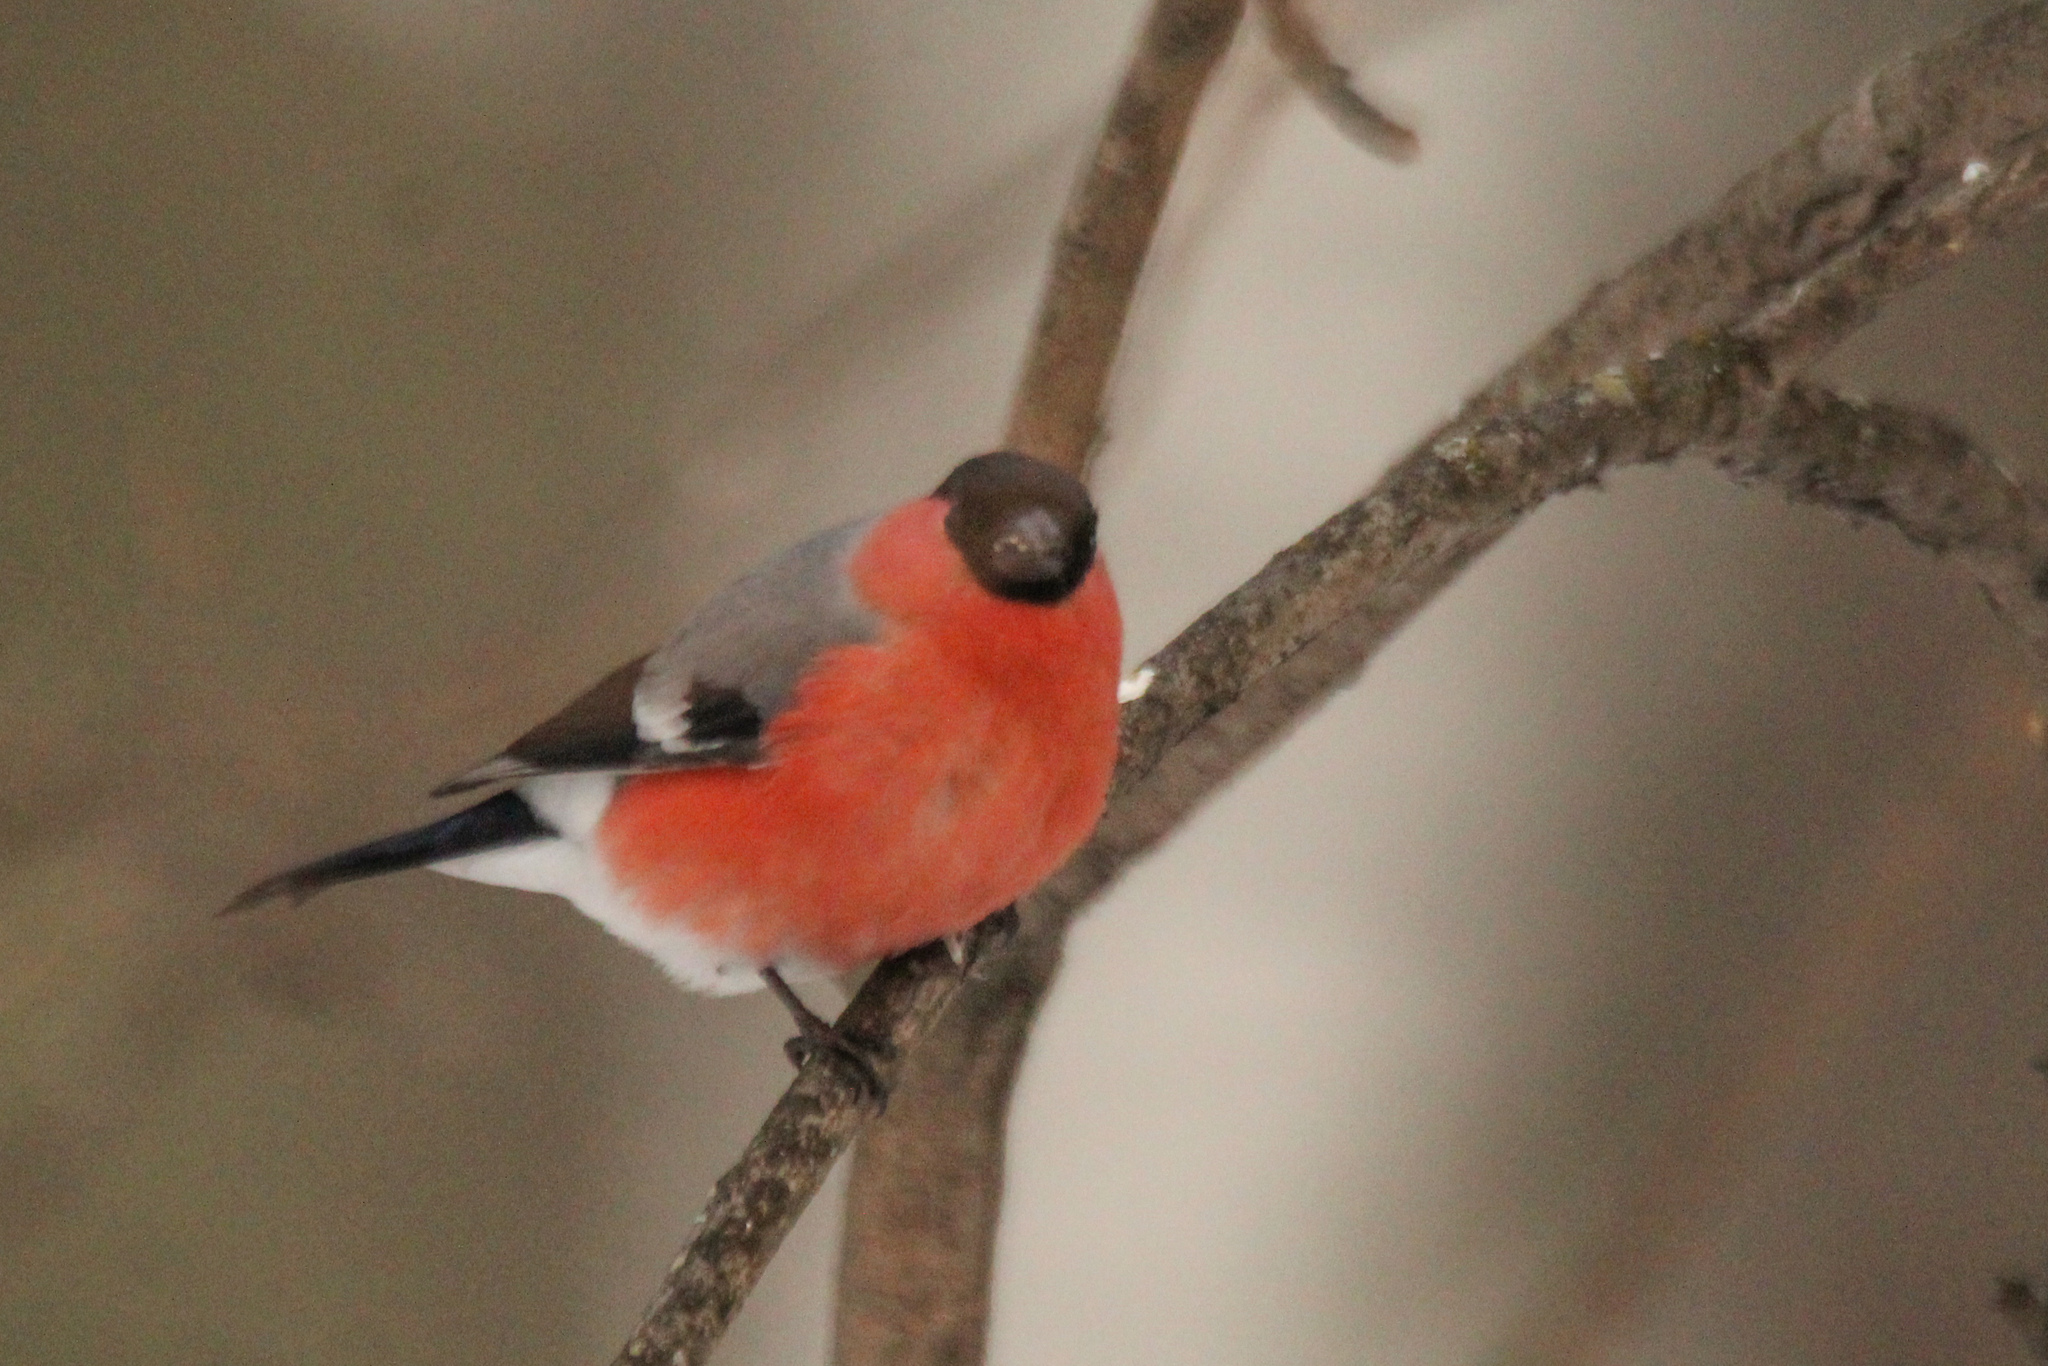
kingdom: Animalia
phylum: Chordata
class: Aves
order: Passeriformes
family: Fringillidae
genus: Pyrrhula
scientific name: Pyrrhula pyrrhula
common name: Eurasian bullfinch
